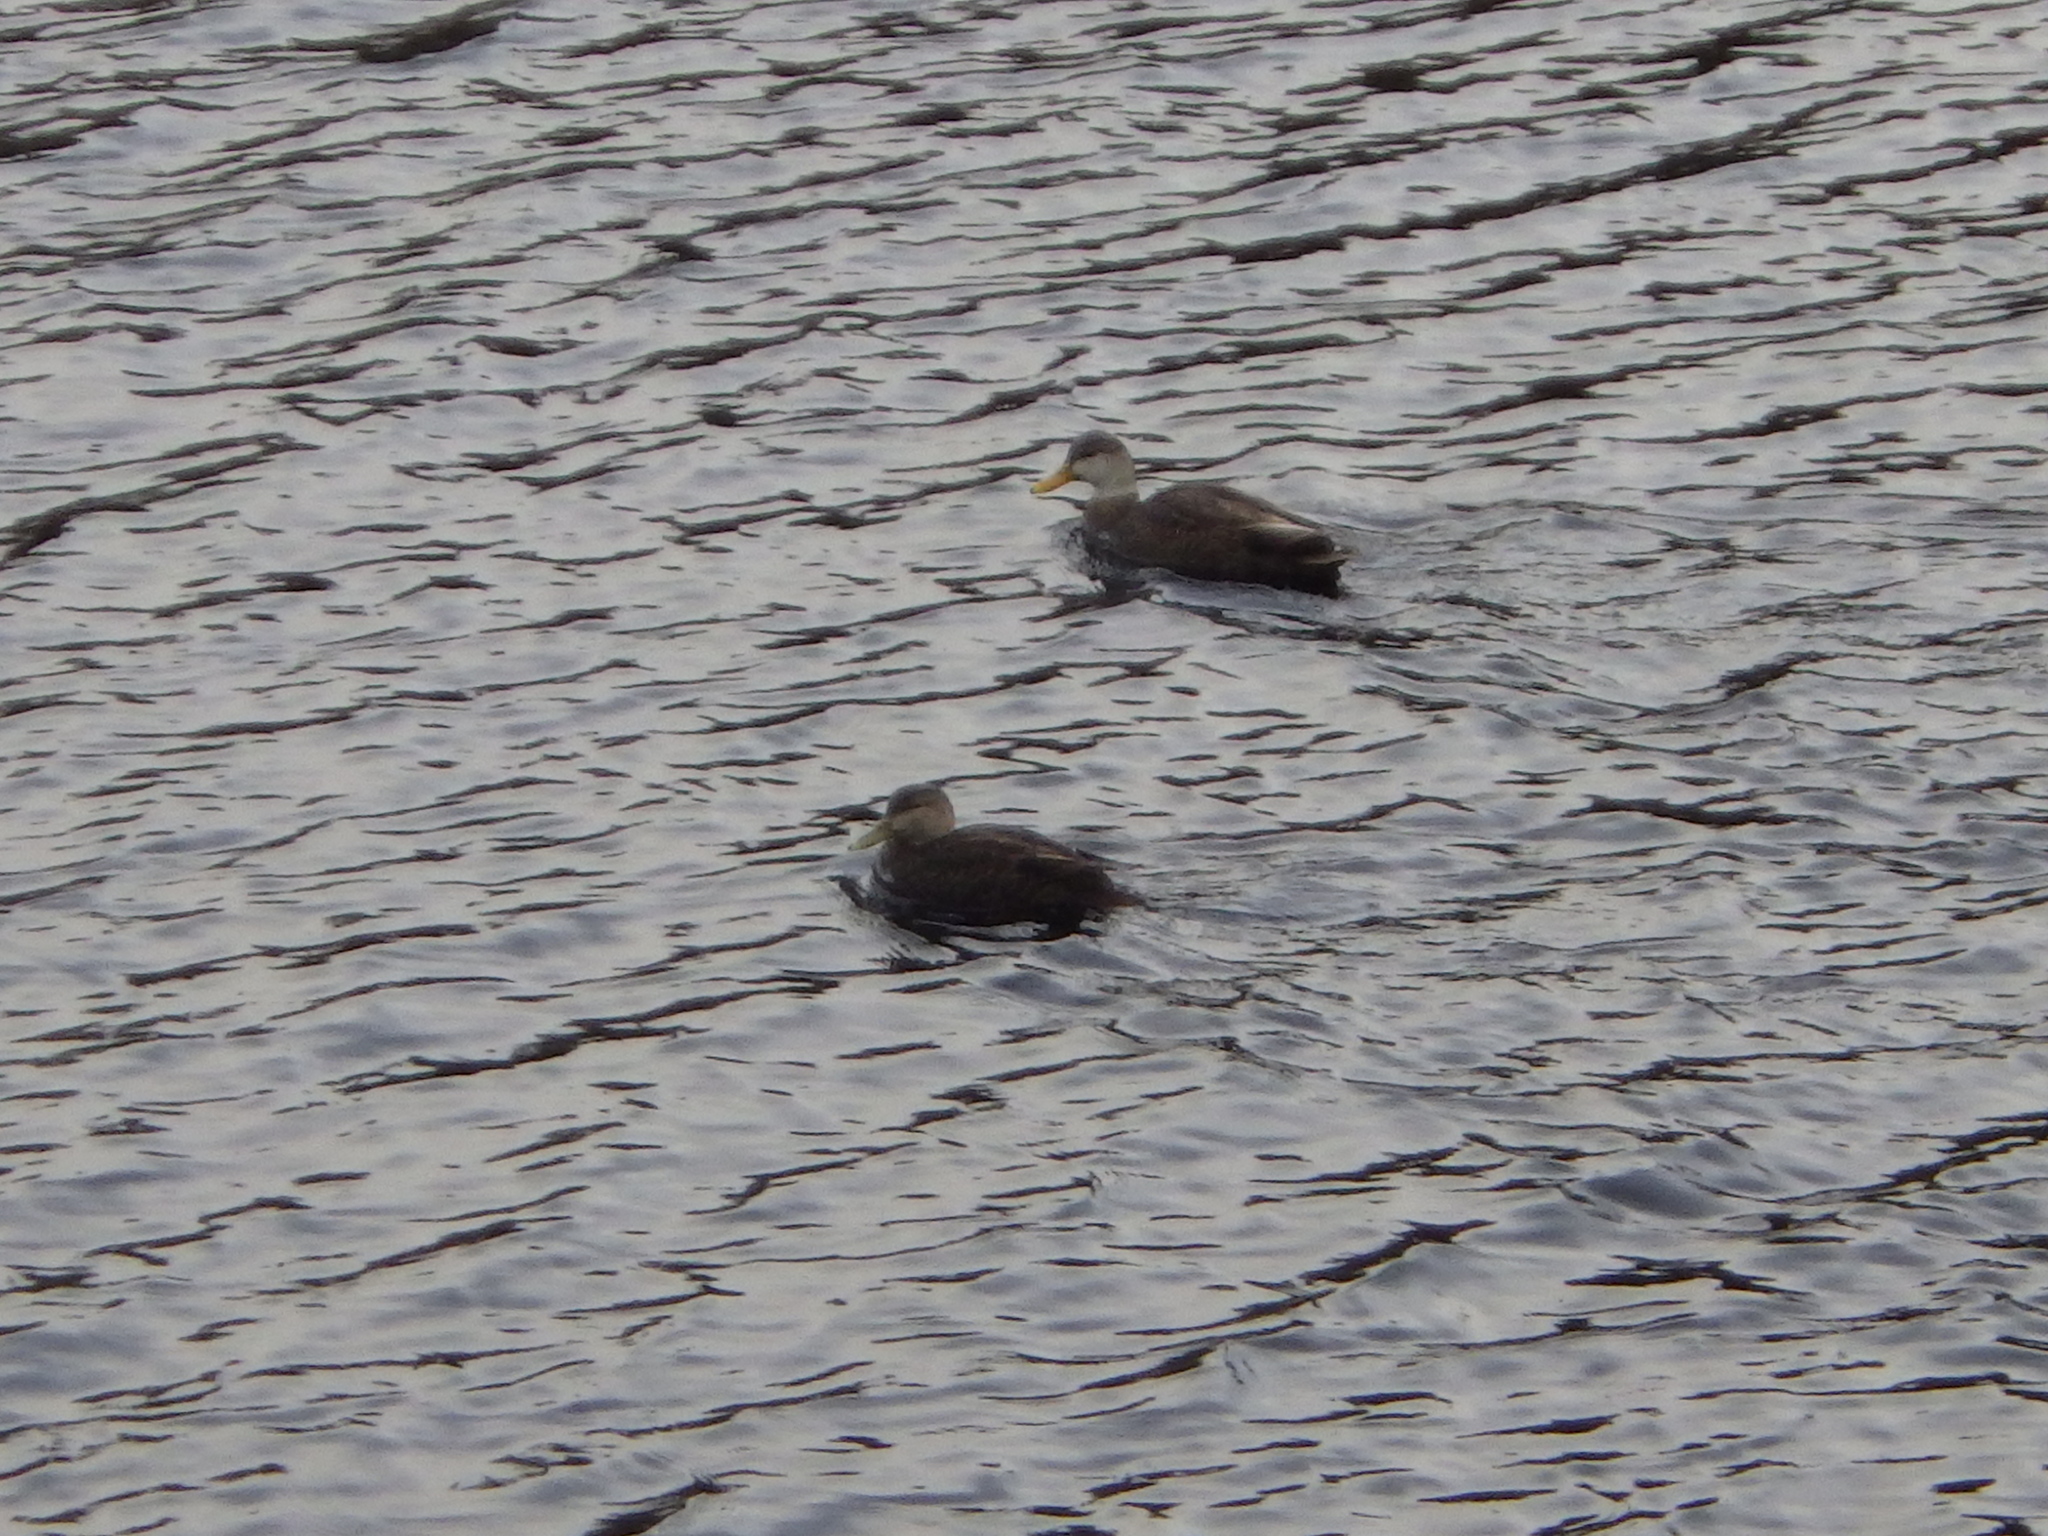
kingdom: Animalia
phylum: Chordata
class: Aves
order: Anseriformes
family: Anatidae
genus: Anas
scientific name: Anas rubripes
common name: American black duck
